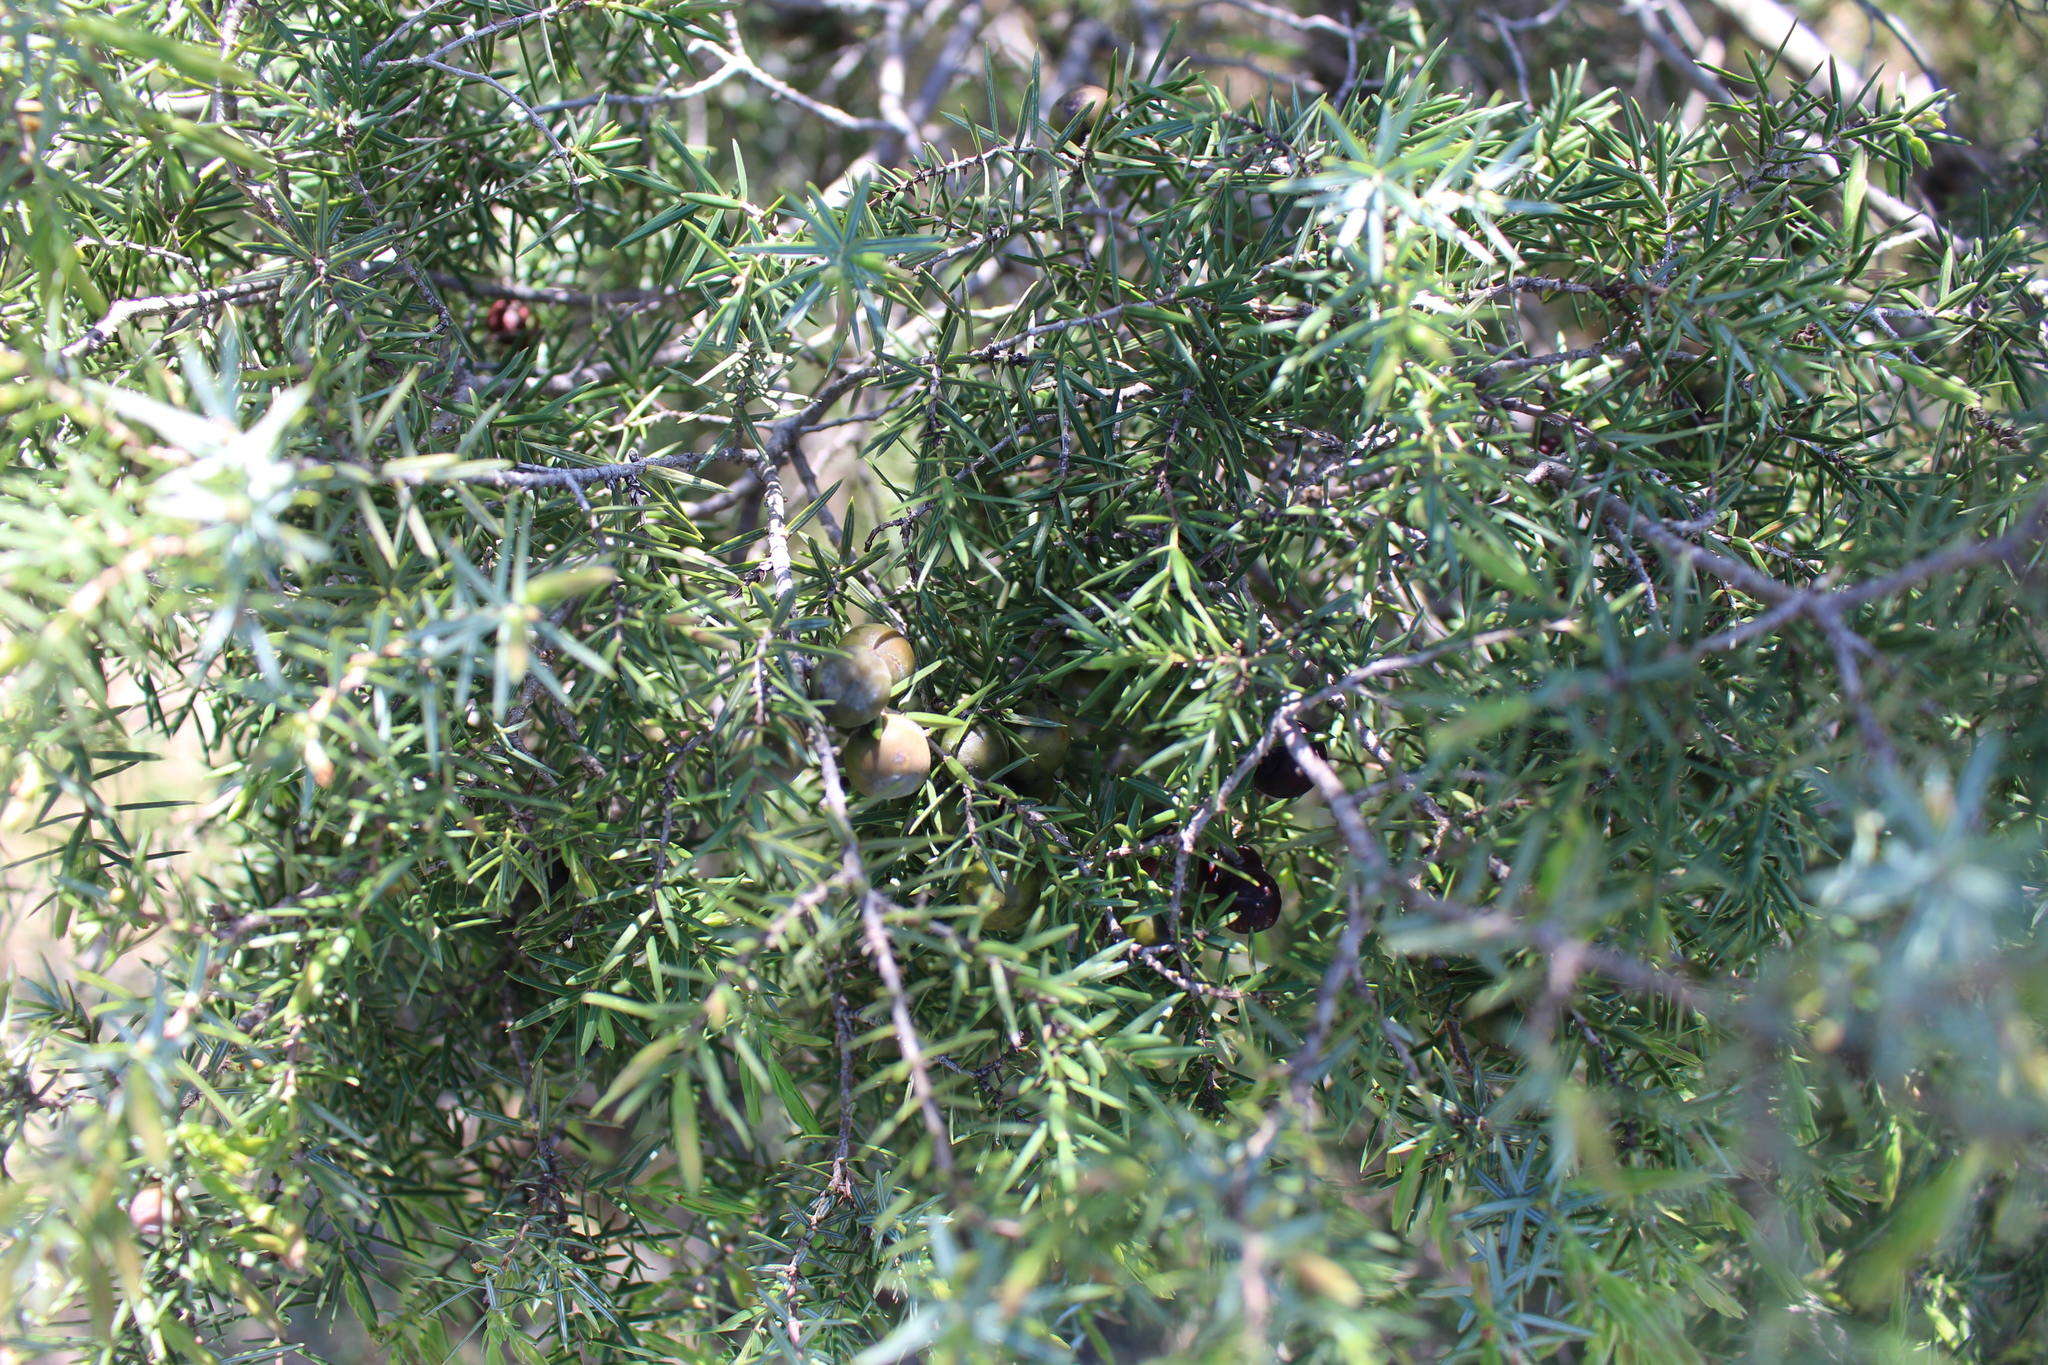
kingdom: Plantae
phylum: Tracheophyta
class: Pinopsida
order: Pinales
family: Cupressaceae
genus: Juniperus
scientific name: Juniperus oxycedrus
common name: Prickly juniper
